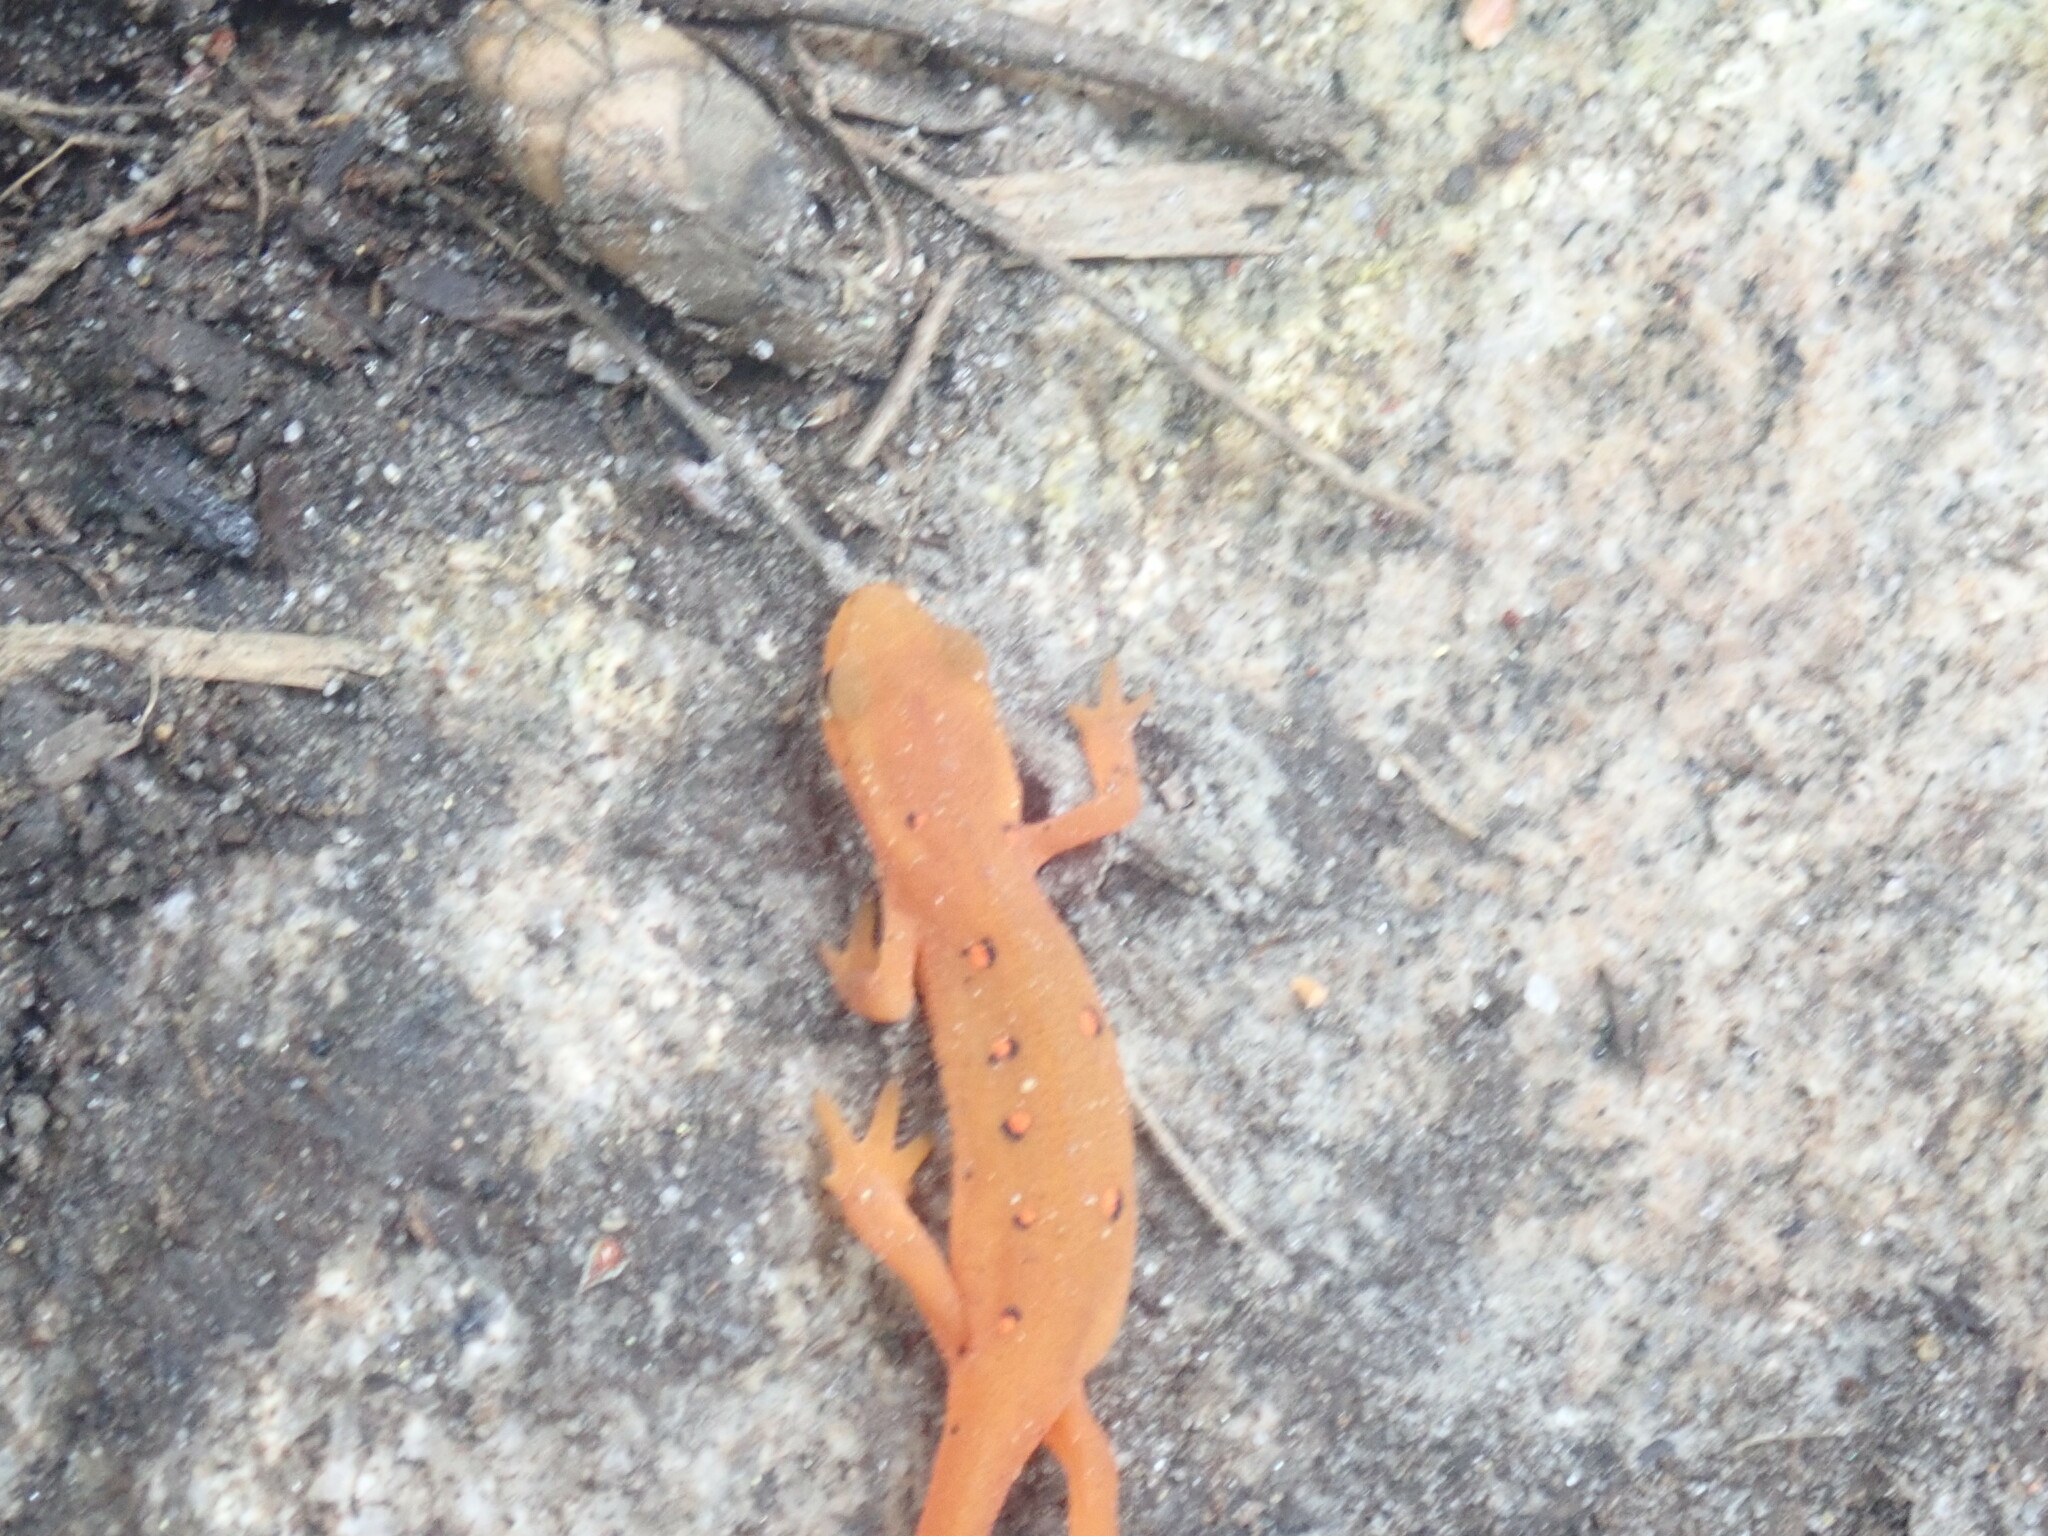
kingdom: Animalia
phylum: Chordata
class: Amphibia
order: Caudata
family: Salamandridae
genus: Notophthalmus
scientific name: Notophthalmus viridescens
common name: Eastern newt
